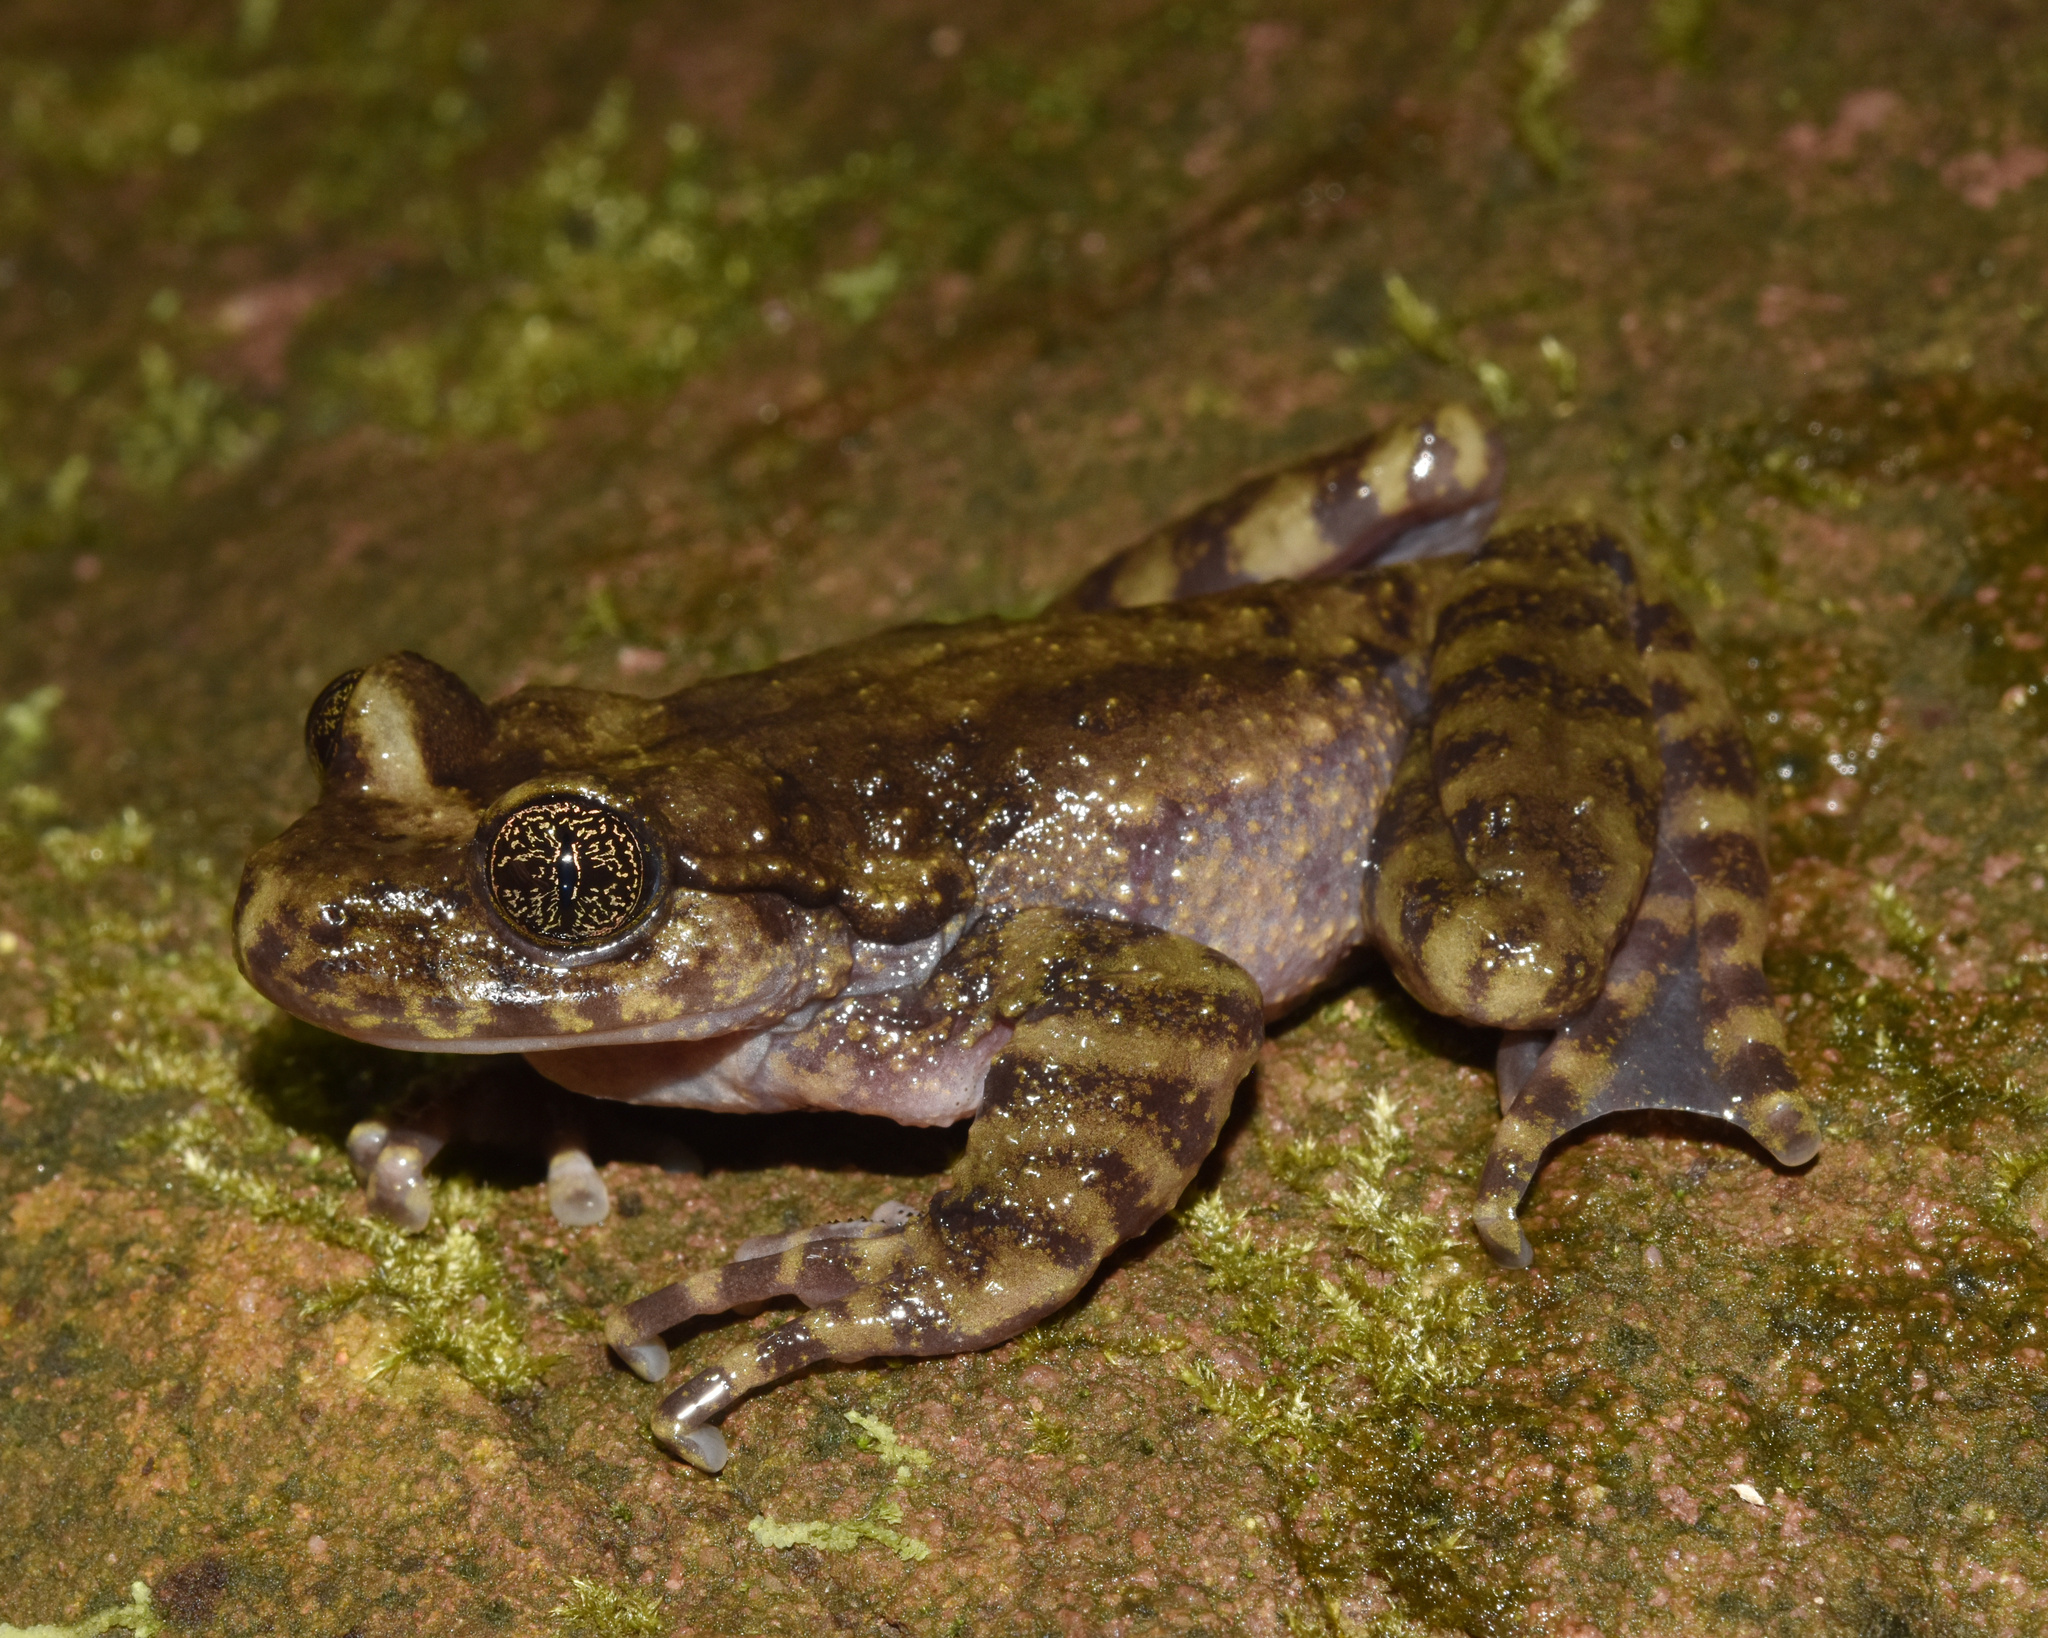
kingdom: Animalia
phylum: Chordata
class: Amphibia
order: Anura
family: Heleophrynidae
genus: Hadromophryne
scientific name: Hadromophryne natalensis
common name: Natal ghost frog
